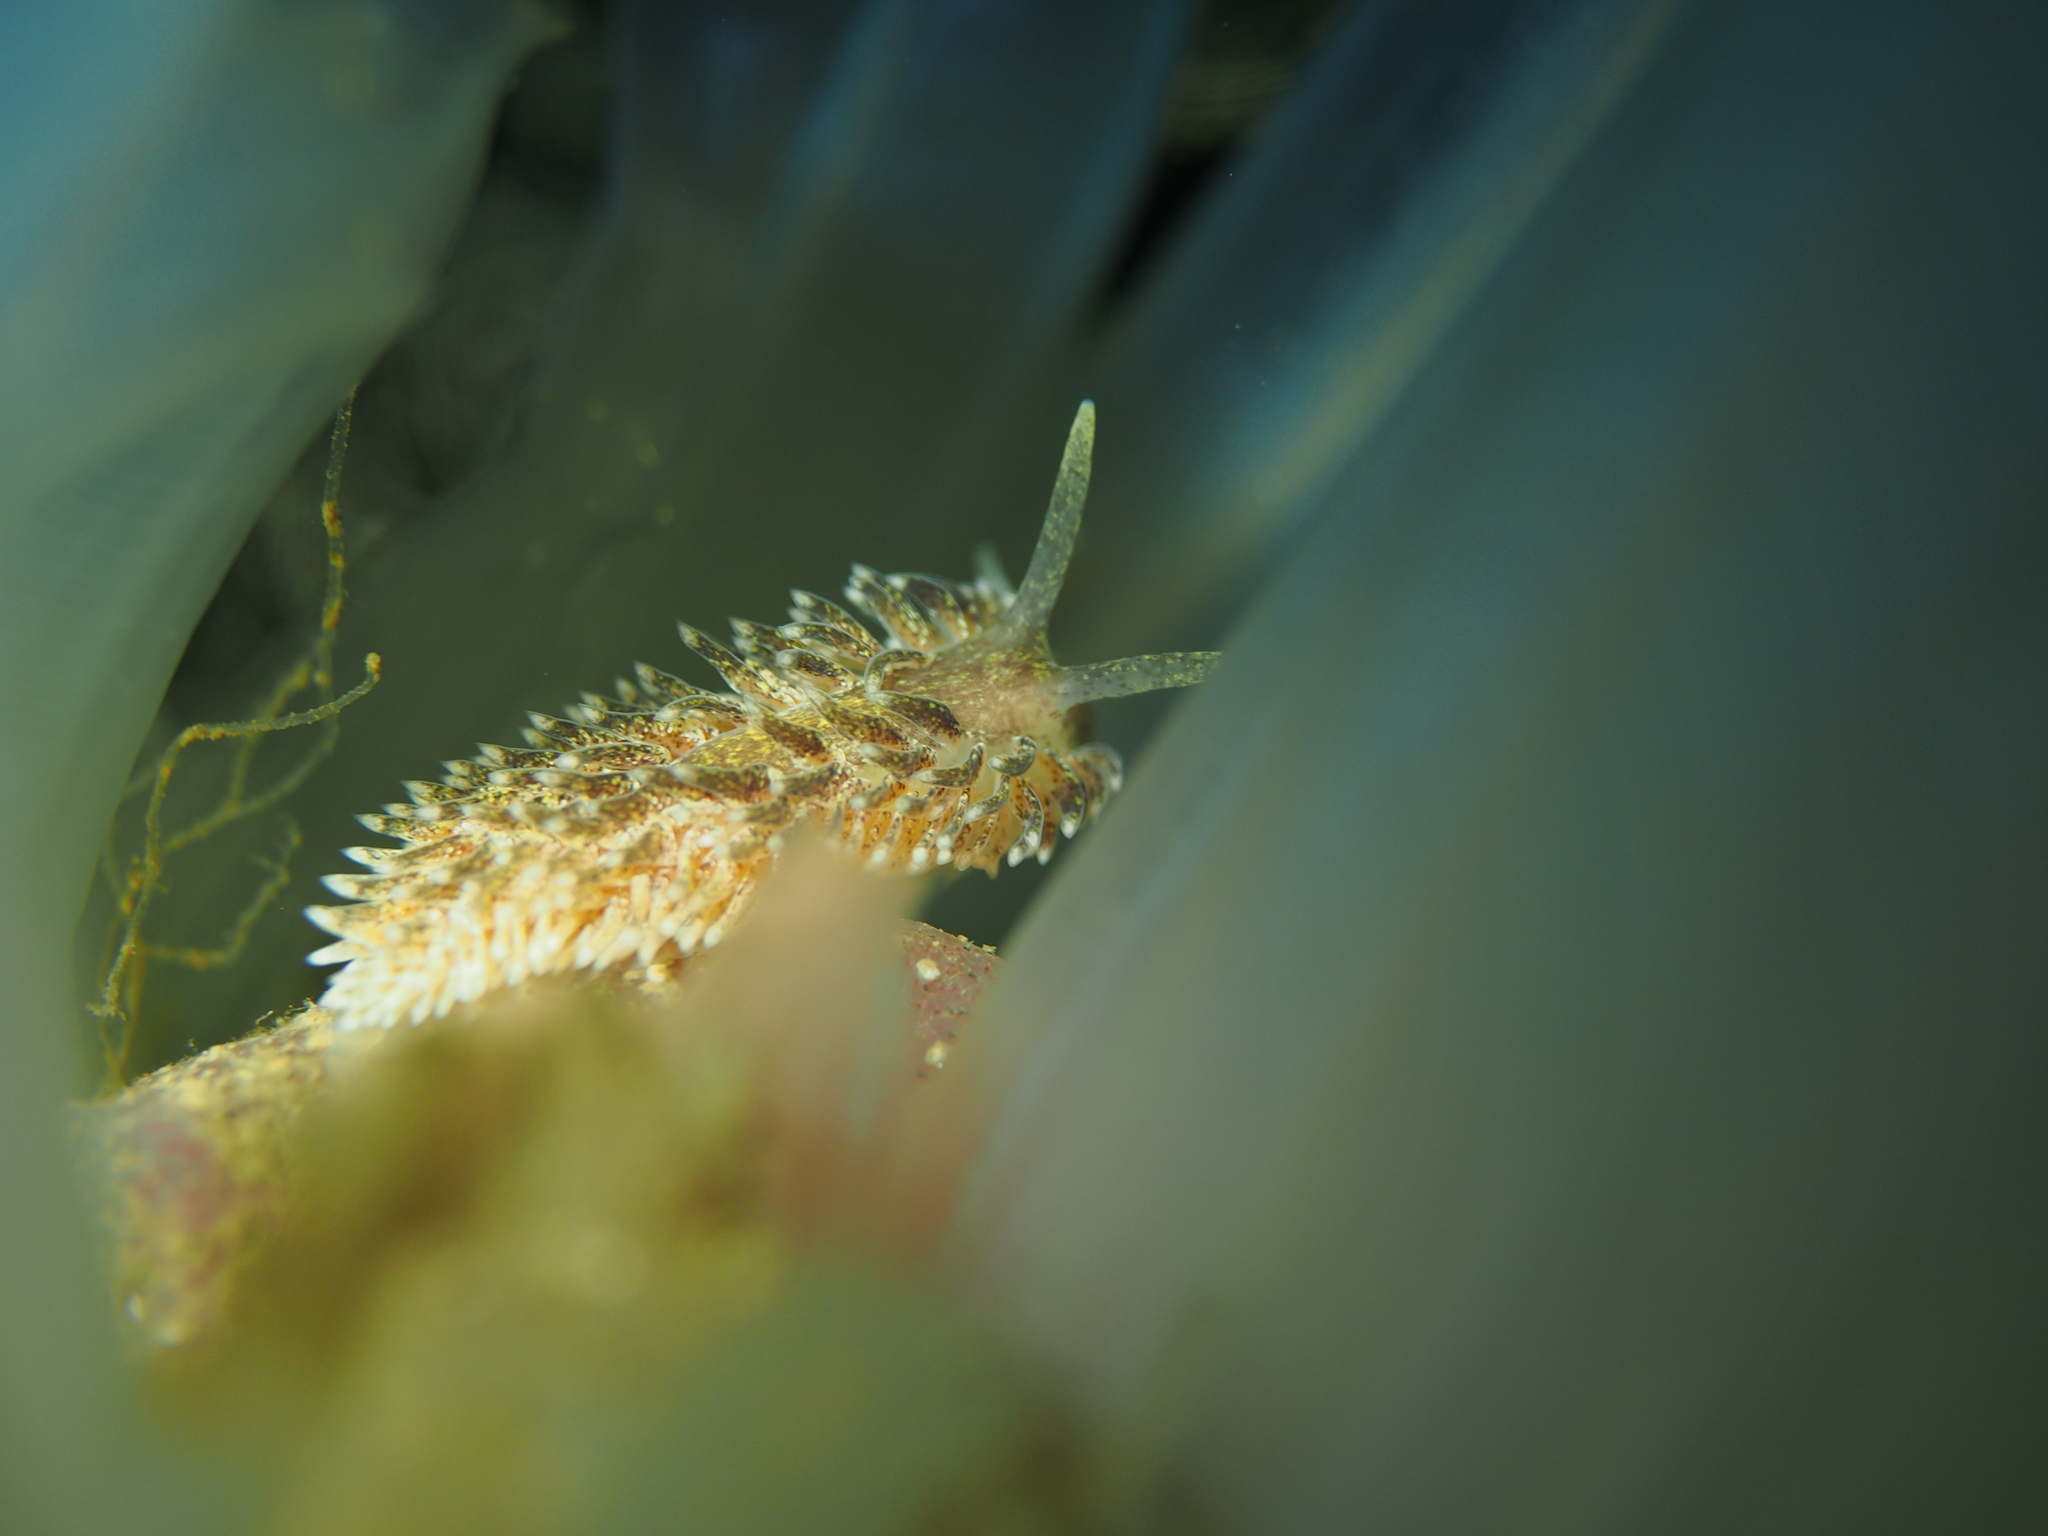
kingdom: Animalia
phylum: Mollusca
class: Gastropoda
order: Nudibranchia
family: Aeolidiidae
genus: Aeolidia
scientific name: Aeolidia papillosa
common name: Common grey sea slug
